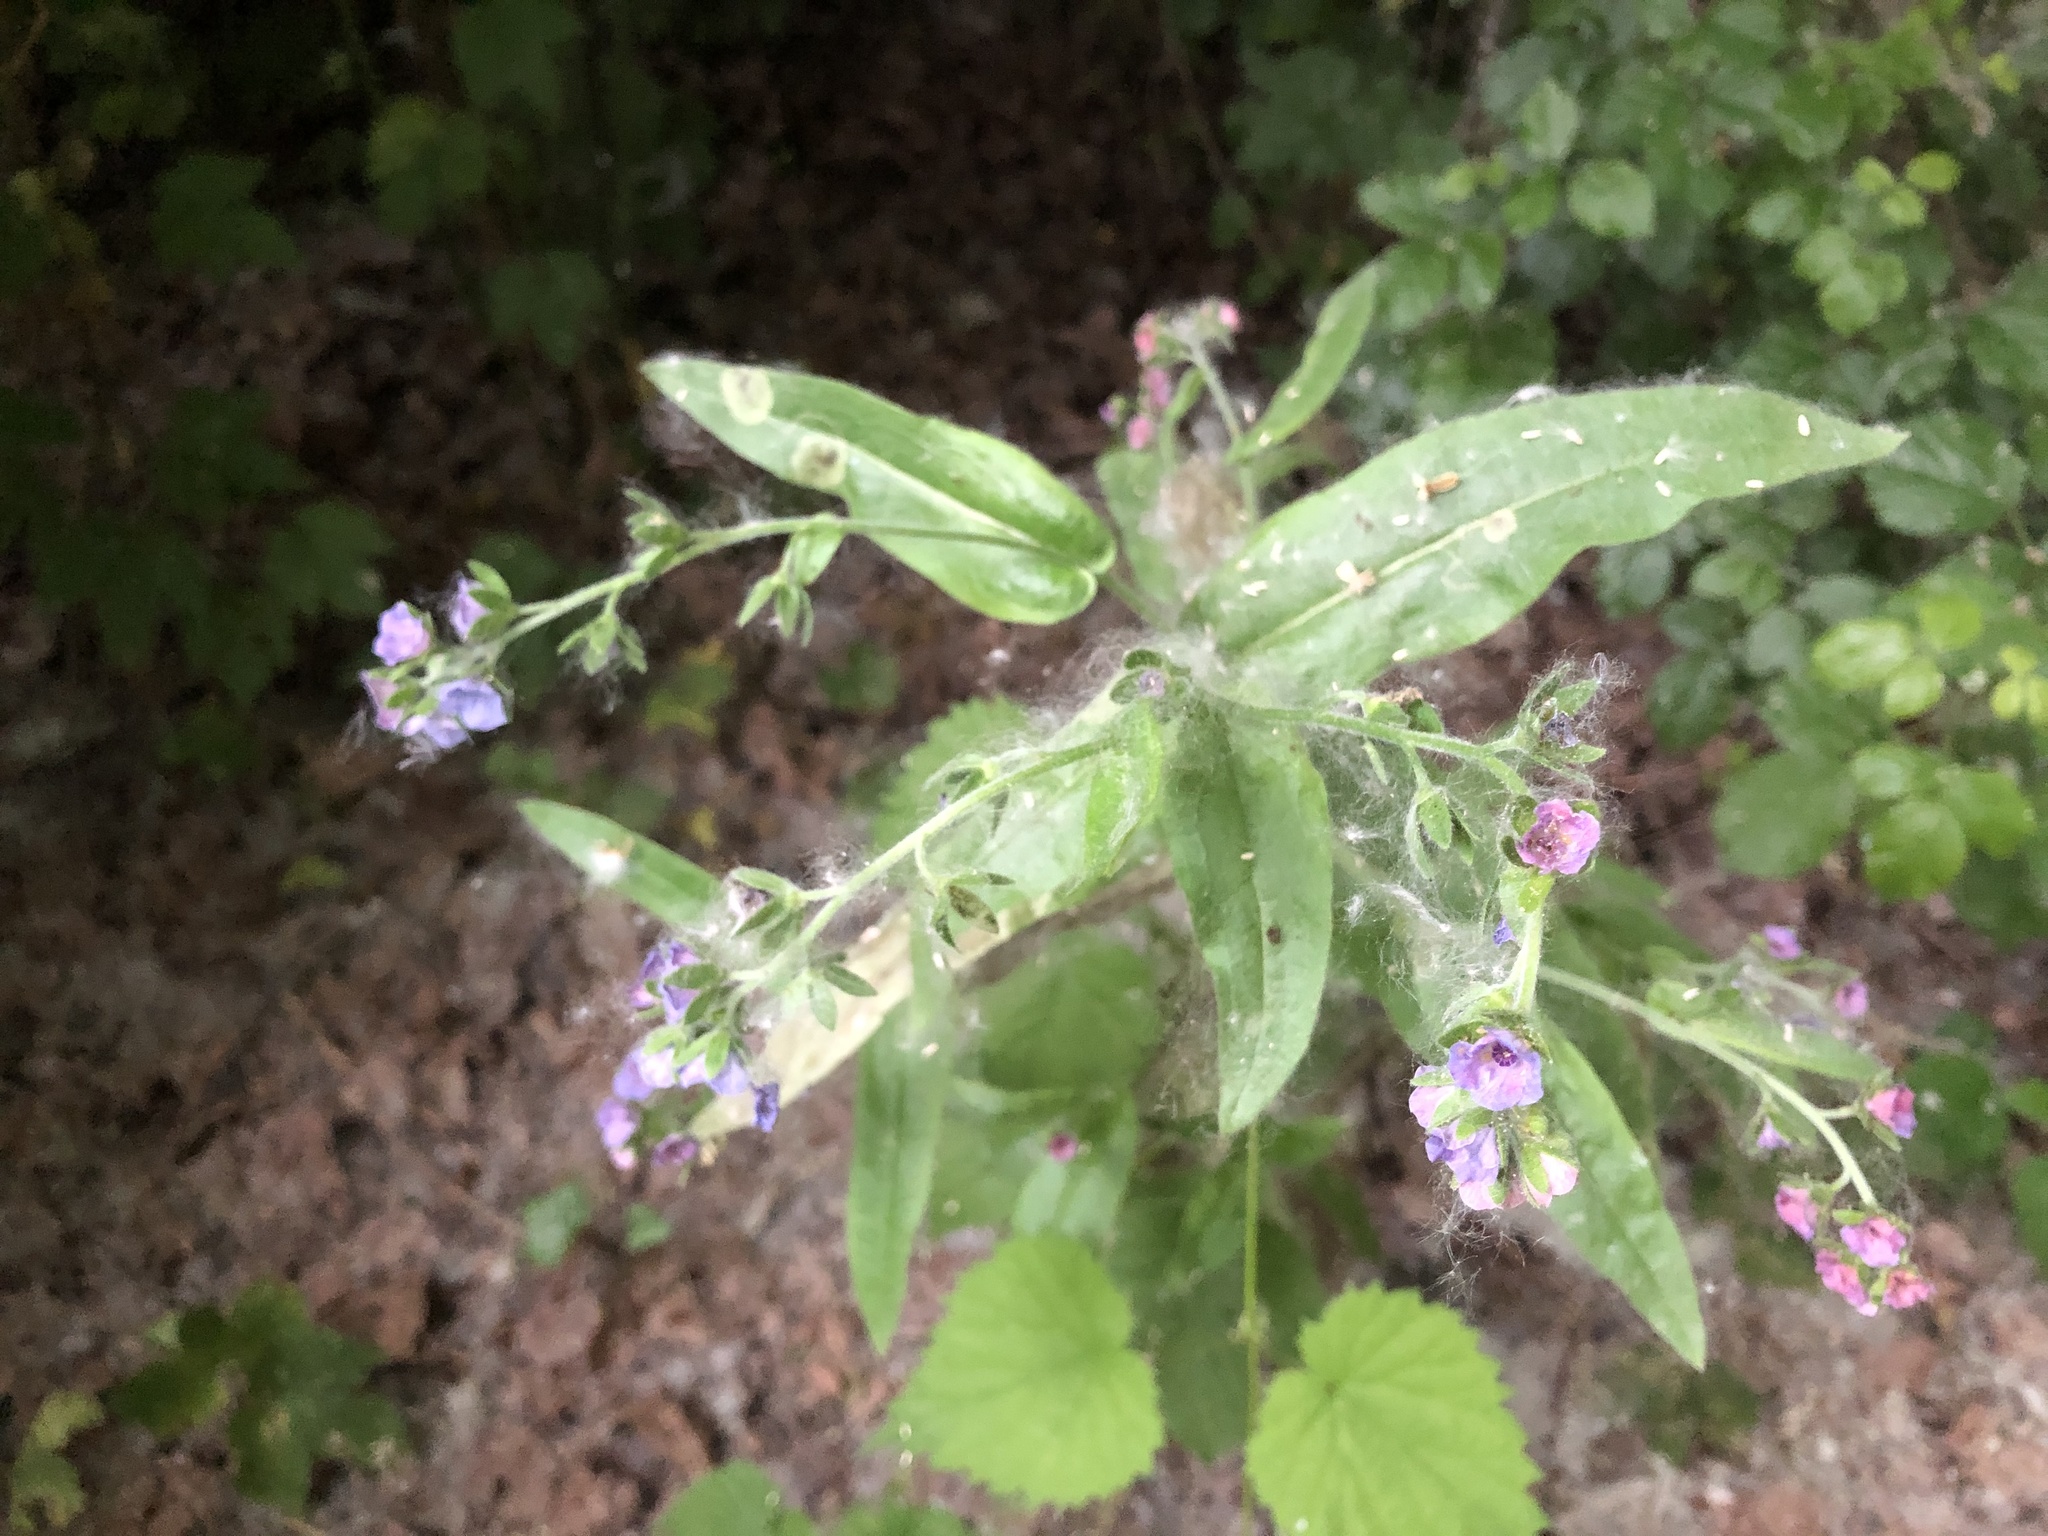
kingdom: Plantae
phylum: Tracheophyta
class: Magnoliopsida
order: Boraginales
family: Boraginaceae
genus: Cynoglossum
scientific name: Cynoglossum creticum
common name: Blue hound's tongue
